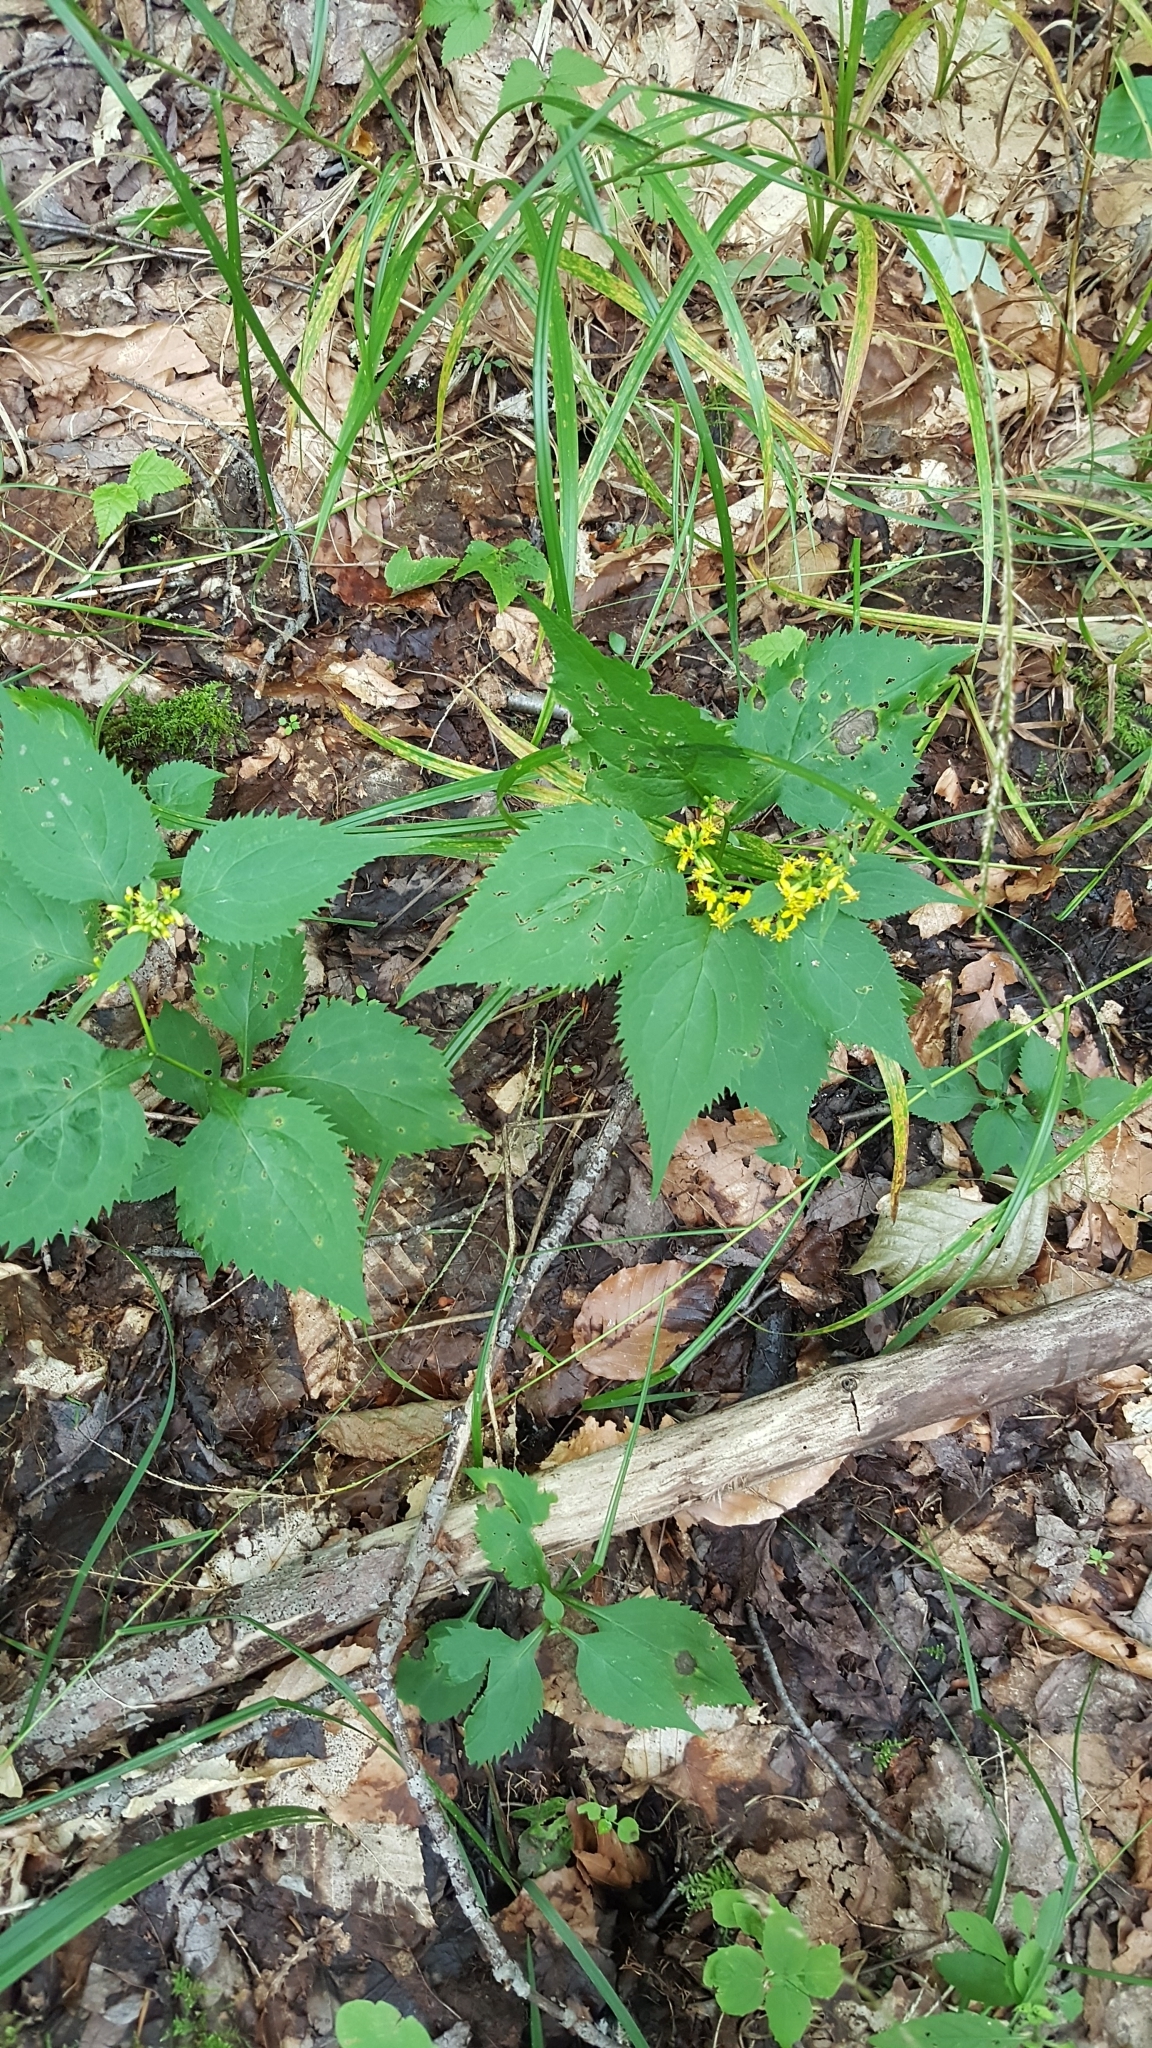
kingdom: Plantae
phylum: Tracheophyta
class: Magnoliopsida
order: Asterales
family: Asteraceae
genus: Solidago
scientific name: Solidago flexicaulis
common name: Zig-zag goldenrod
